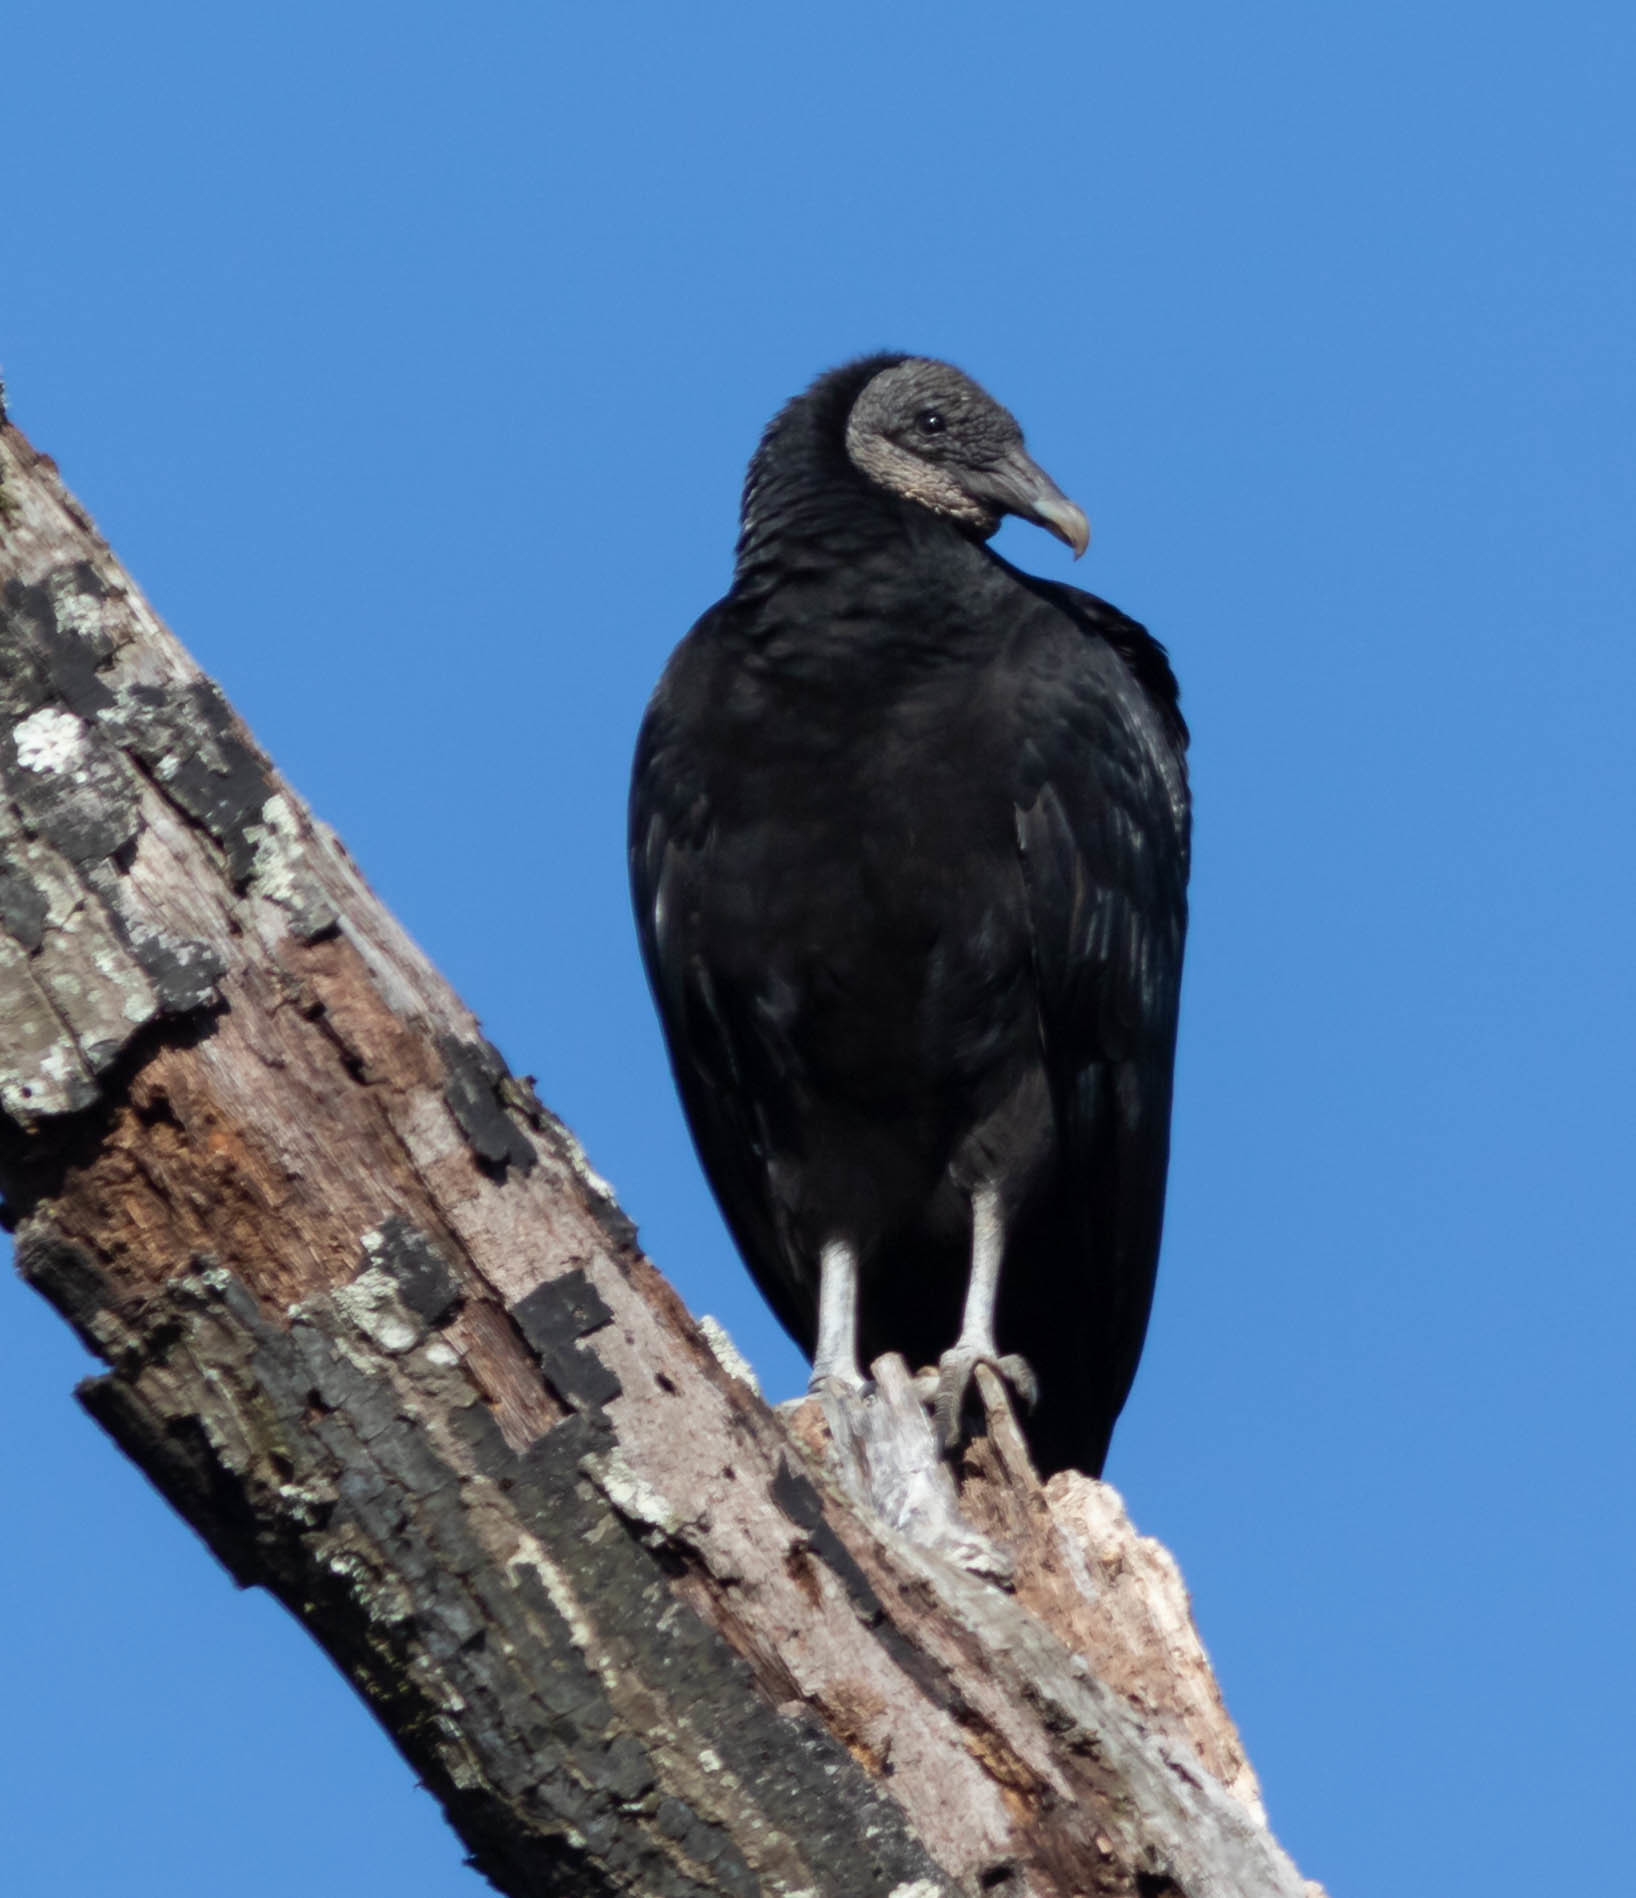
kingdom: Animalia
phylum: Chordata
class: Aves
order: Accipitriformes
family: Cathartidae
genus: Coragyps
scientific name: Coragyps atratus
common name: Black vulture
